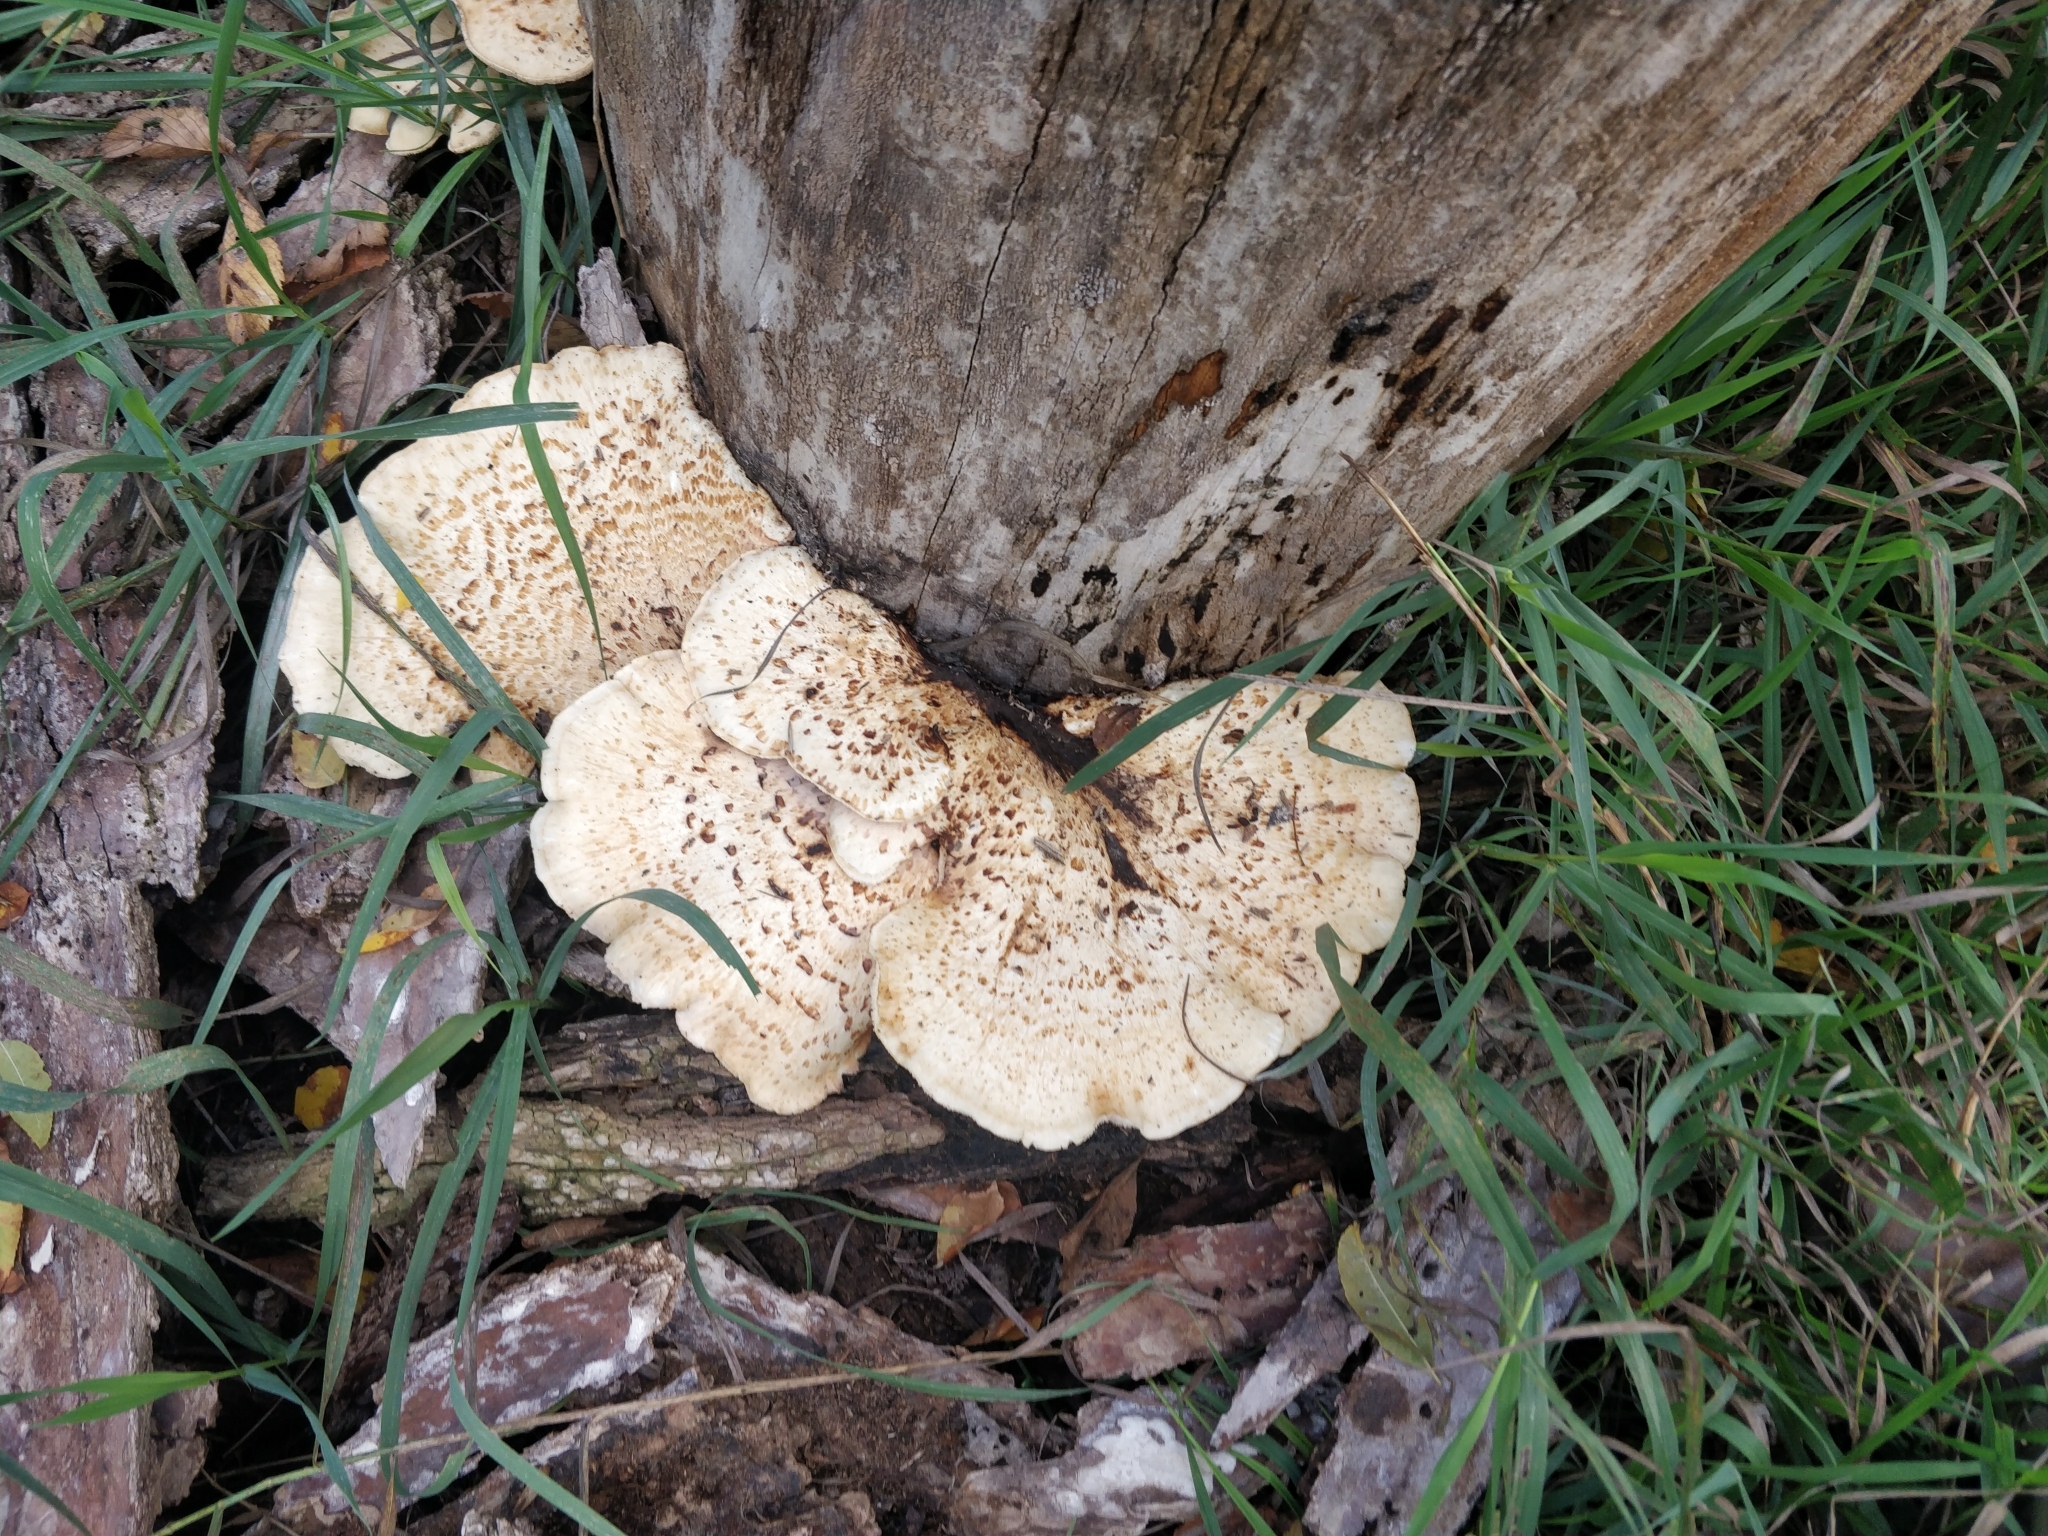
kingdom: Fungi
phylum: Basidiomycota
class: Agaricomycetes
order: Polyporales
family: Polyporaceae
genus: Cerioporus
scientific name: Cerioporus squamosus
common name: Dryad's saddle
